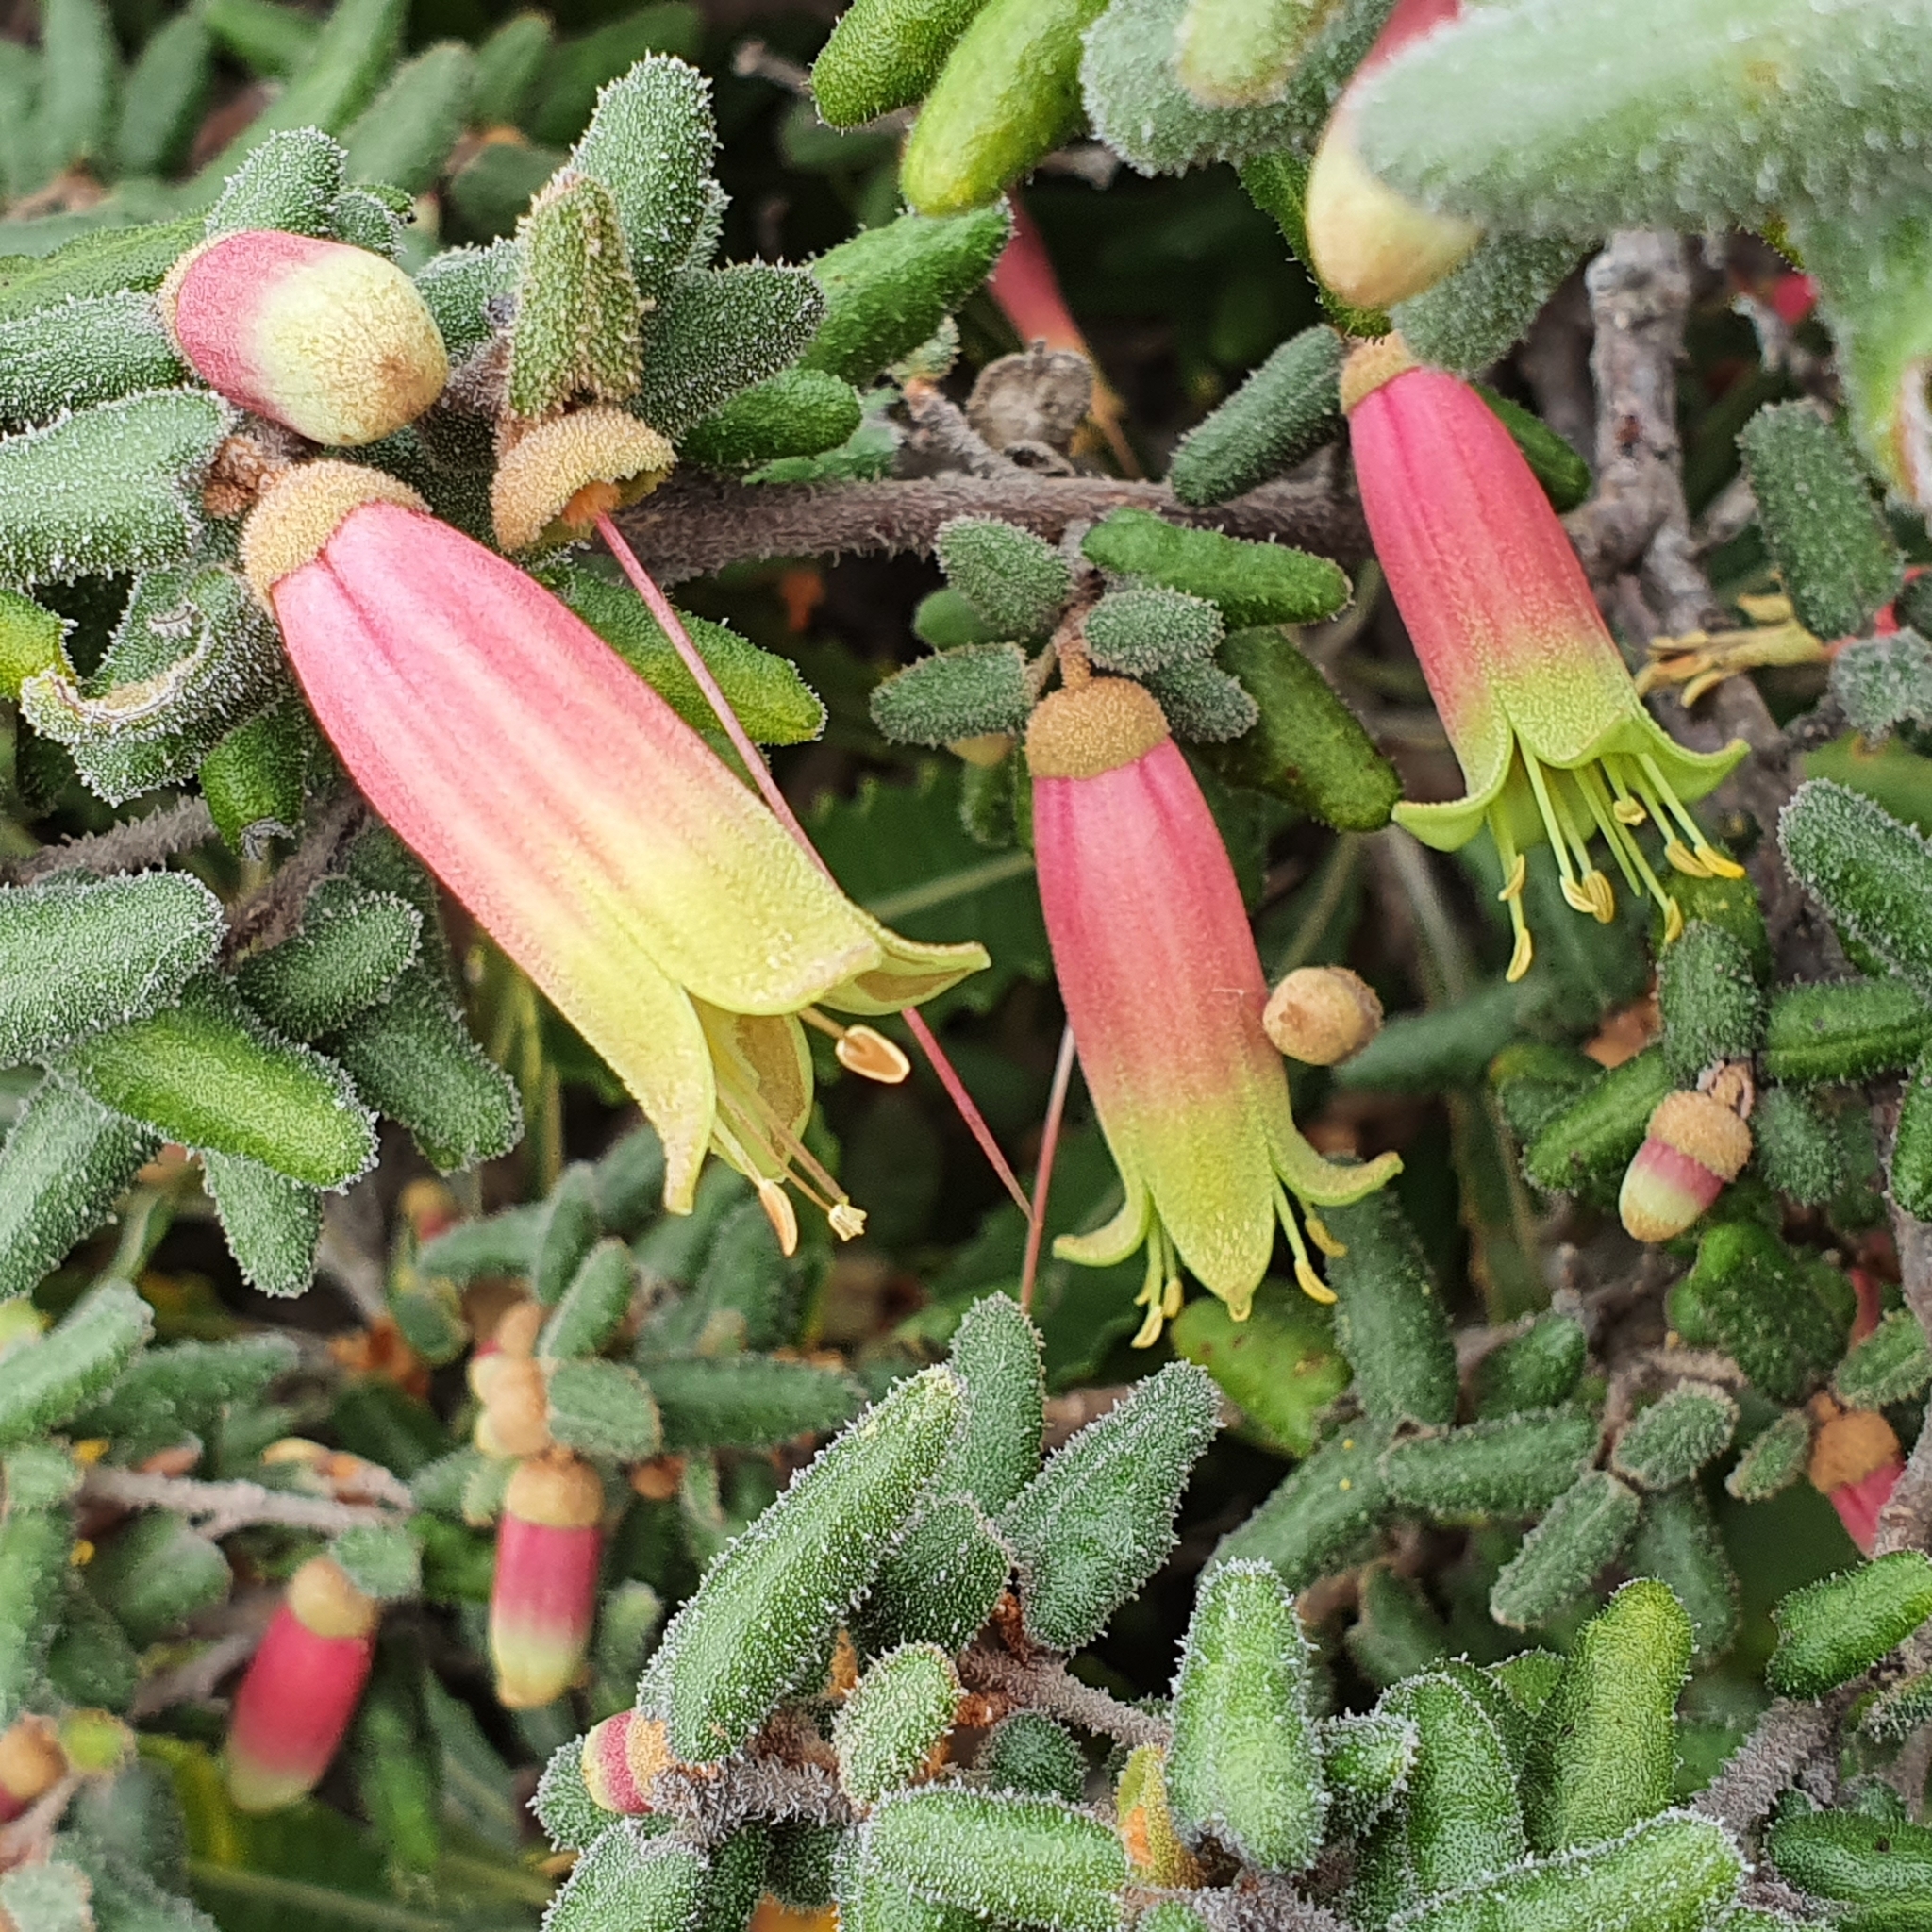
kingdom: Plantae
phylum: Tracheophyta
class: Magnoliopsida
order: Sapindales
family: Rutaceae
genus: Correa
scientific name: Correa reflexa
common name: Common correa
